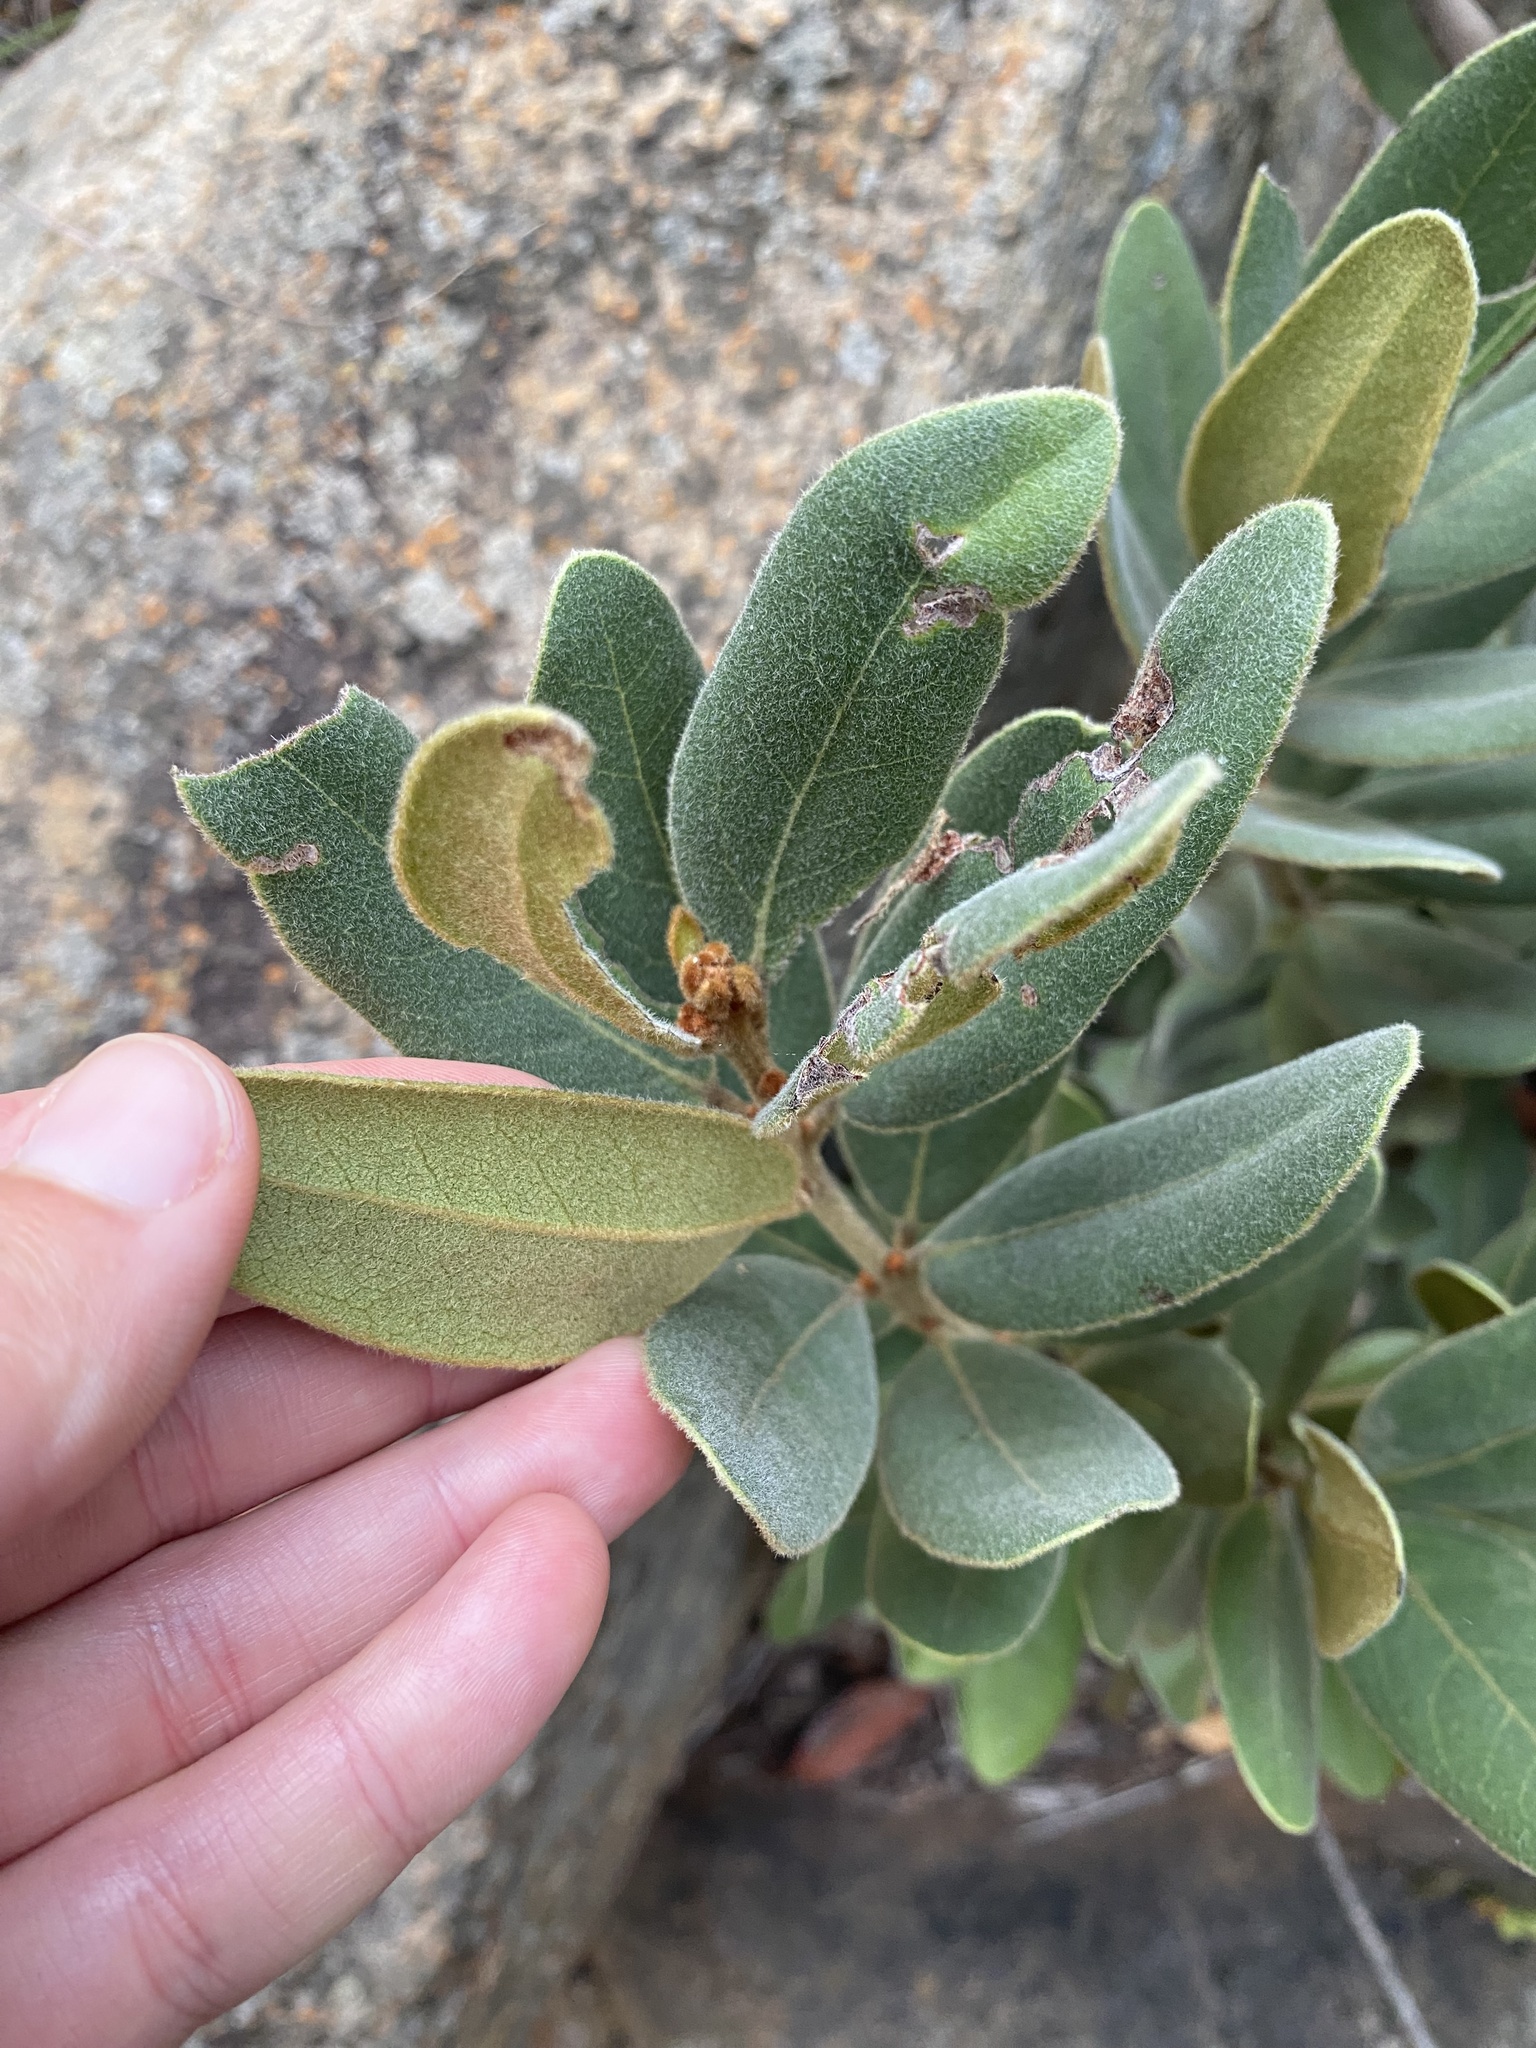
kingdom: Plantae
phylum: Tracheophyta
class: Magnoliopsida
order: Ericales
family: Ebenaceae
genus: Euclea
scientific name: Euclea natalensis
